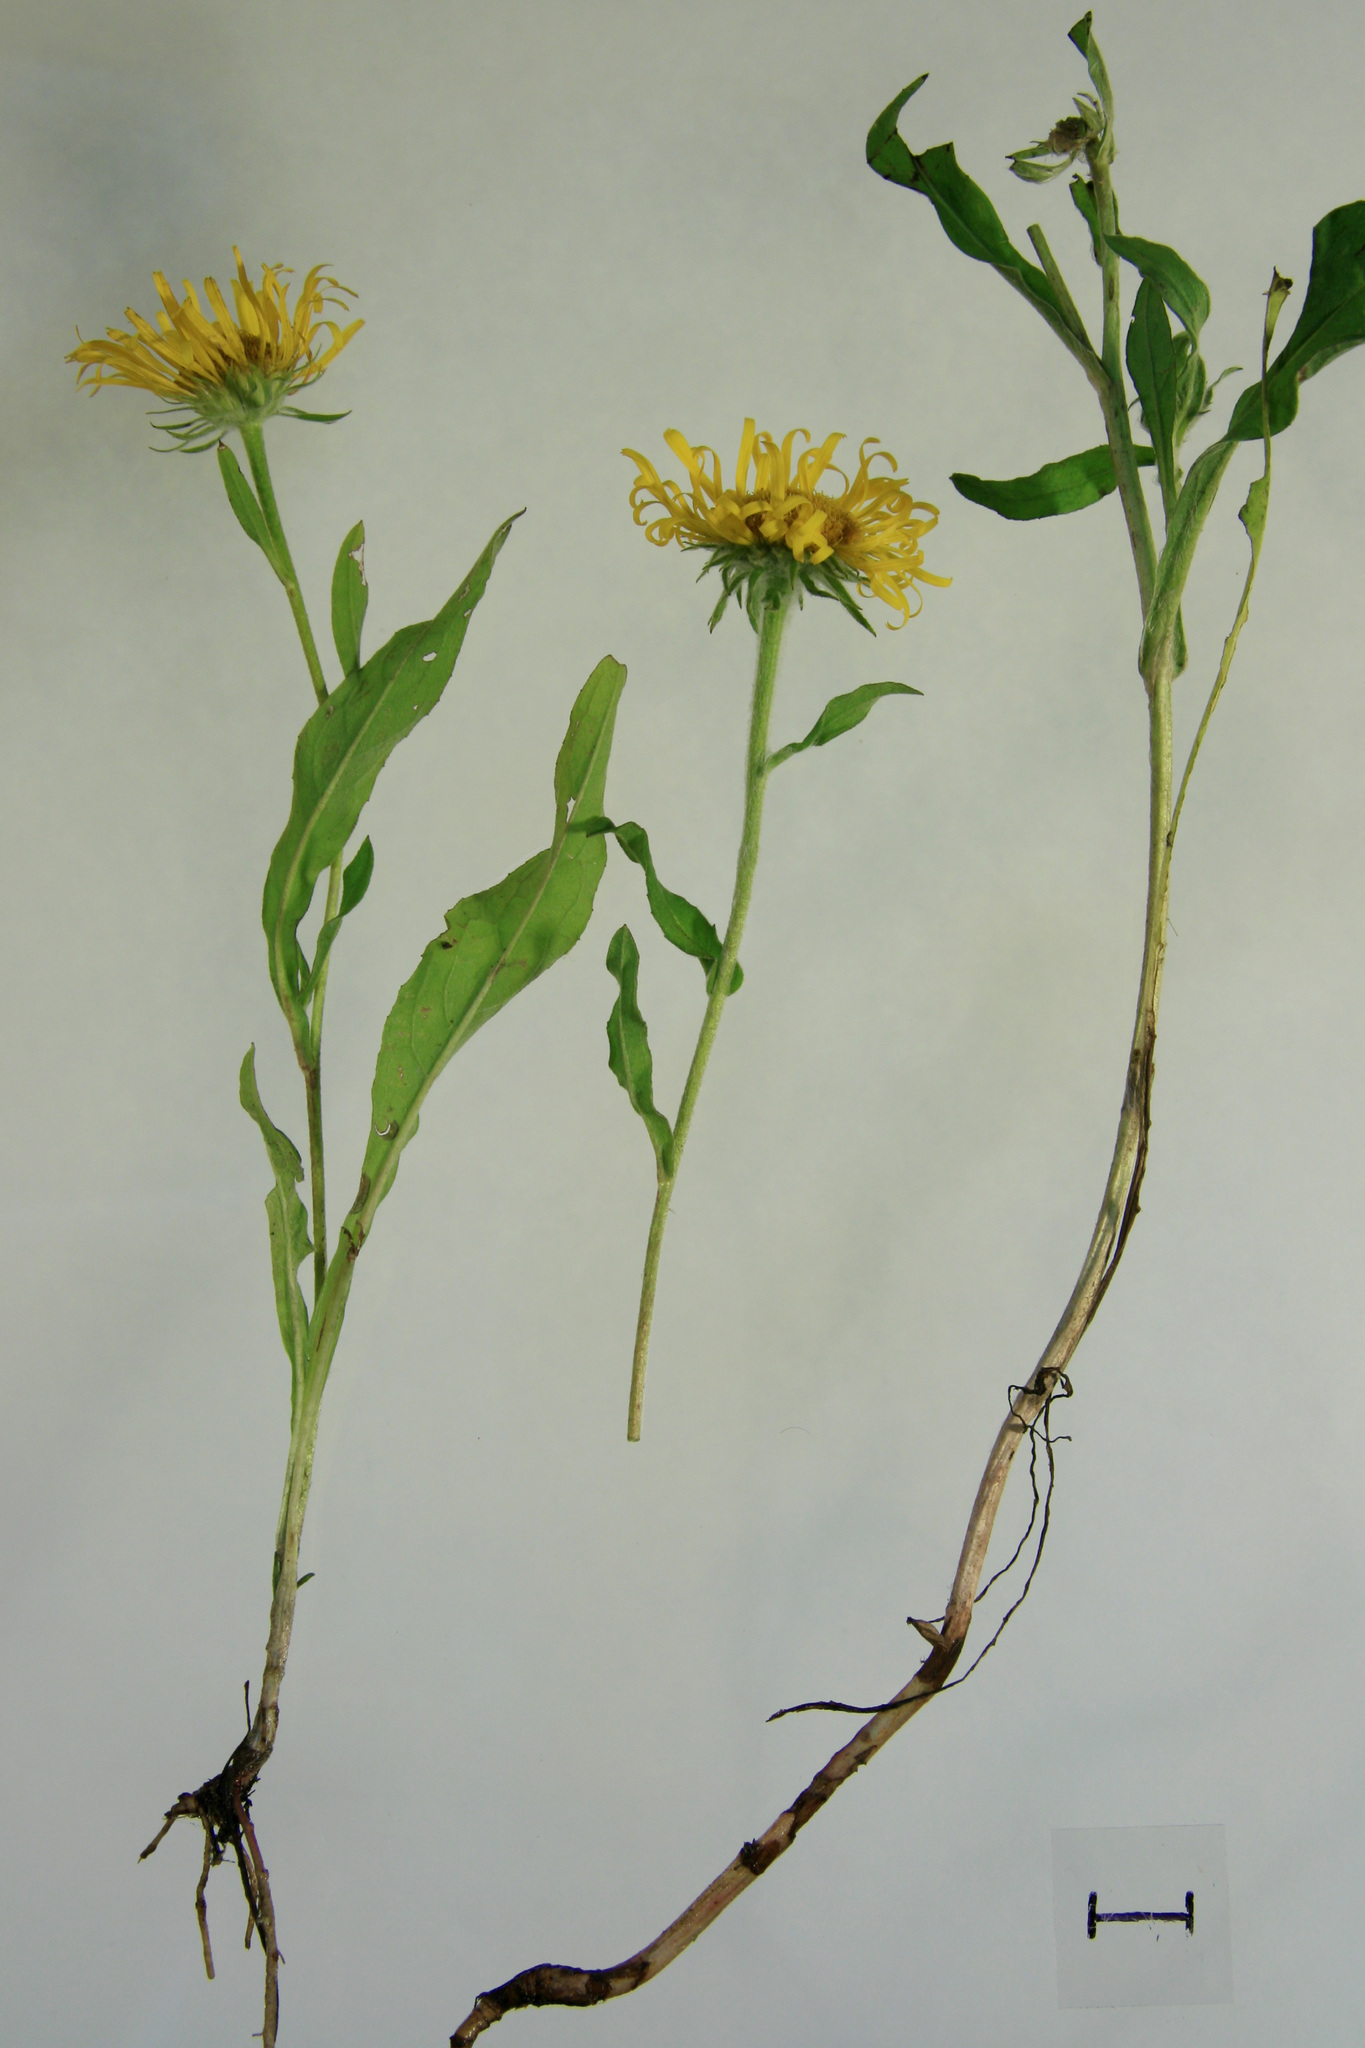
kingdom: Plantae
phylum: Tracheophyta
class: Magnoliopsida
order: Asterales
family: Asteraceae
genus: Pentanema
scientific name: Pentanema britannicum
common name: British elecampane
